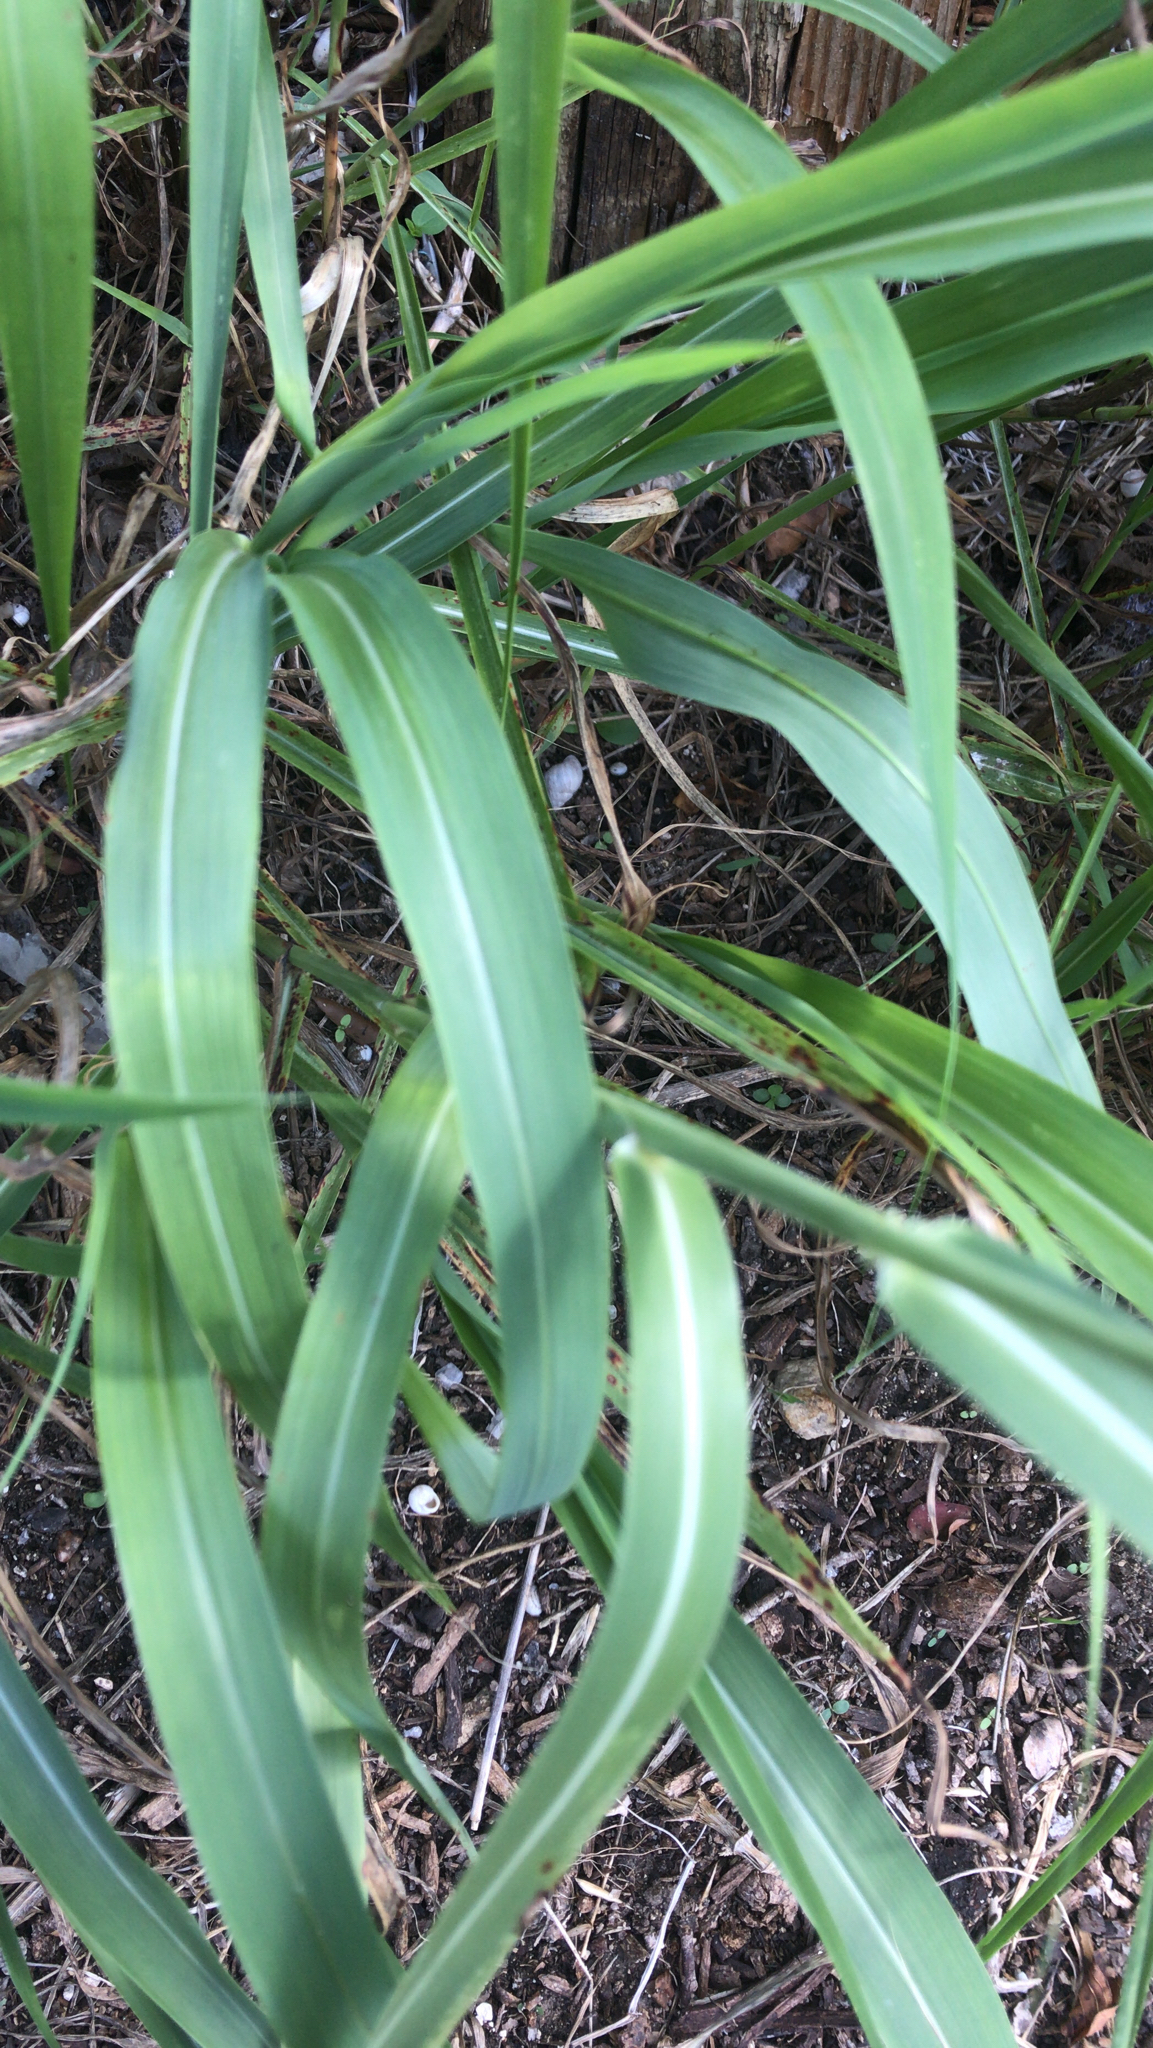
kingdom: Plantae
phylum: Tracheophyta
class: Liliopsida
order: Poales
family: Poaceae
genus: Sorghum
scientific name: Sorghum halepense
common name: Johnson-grass
